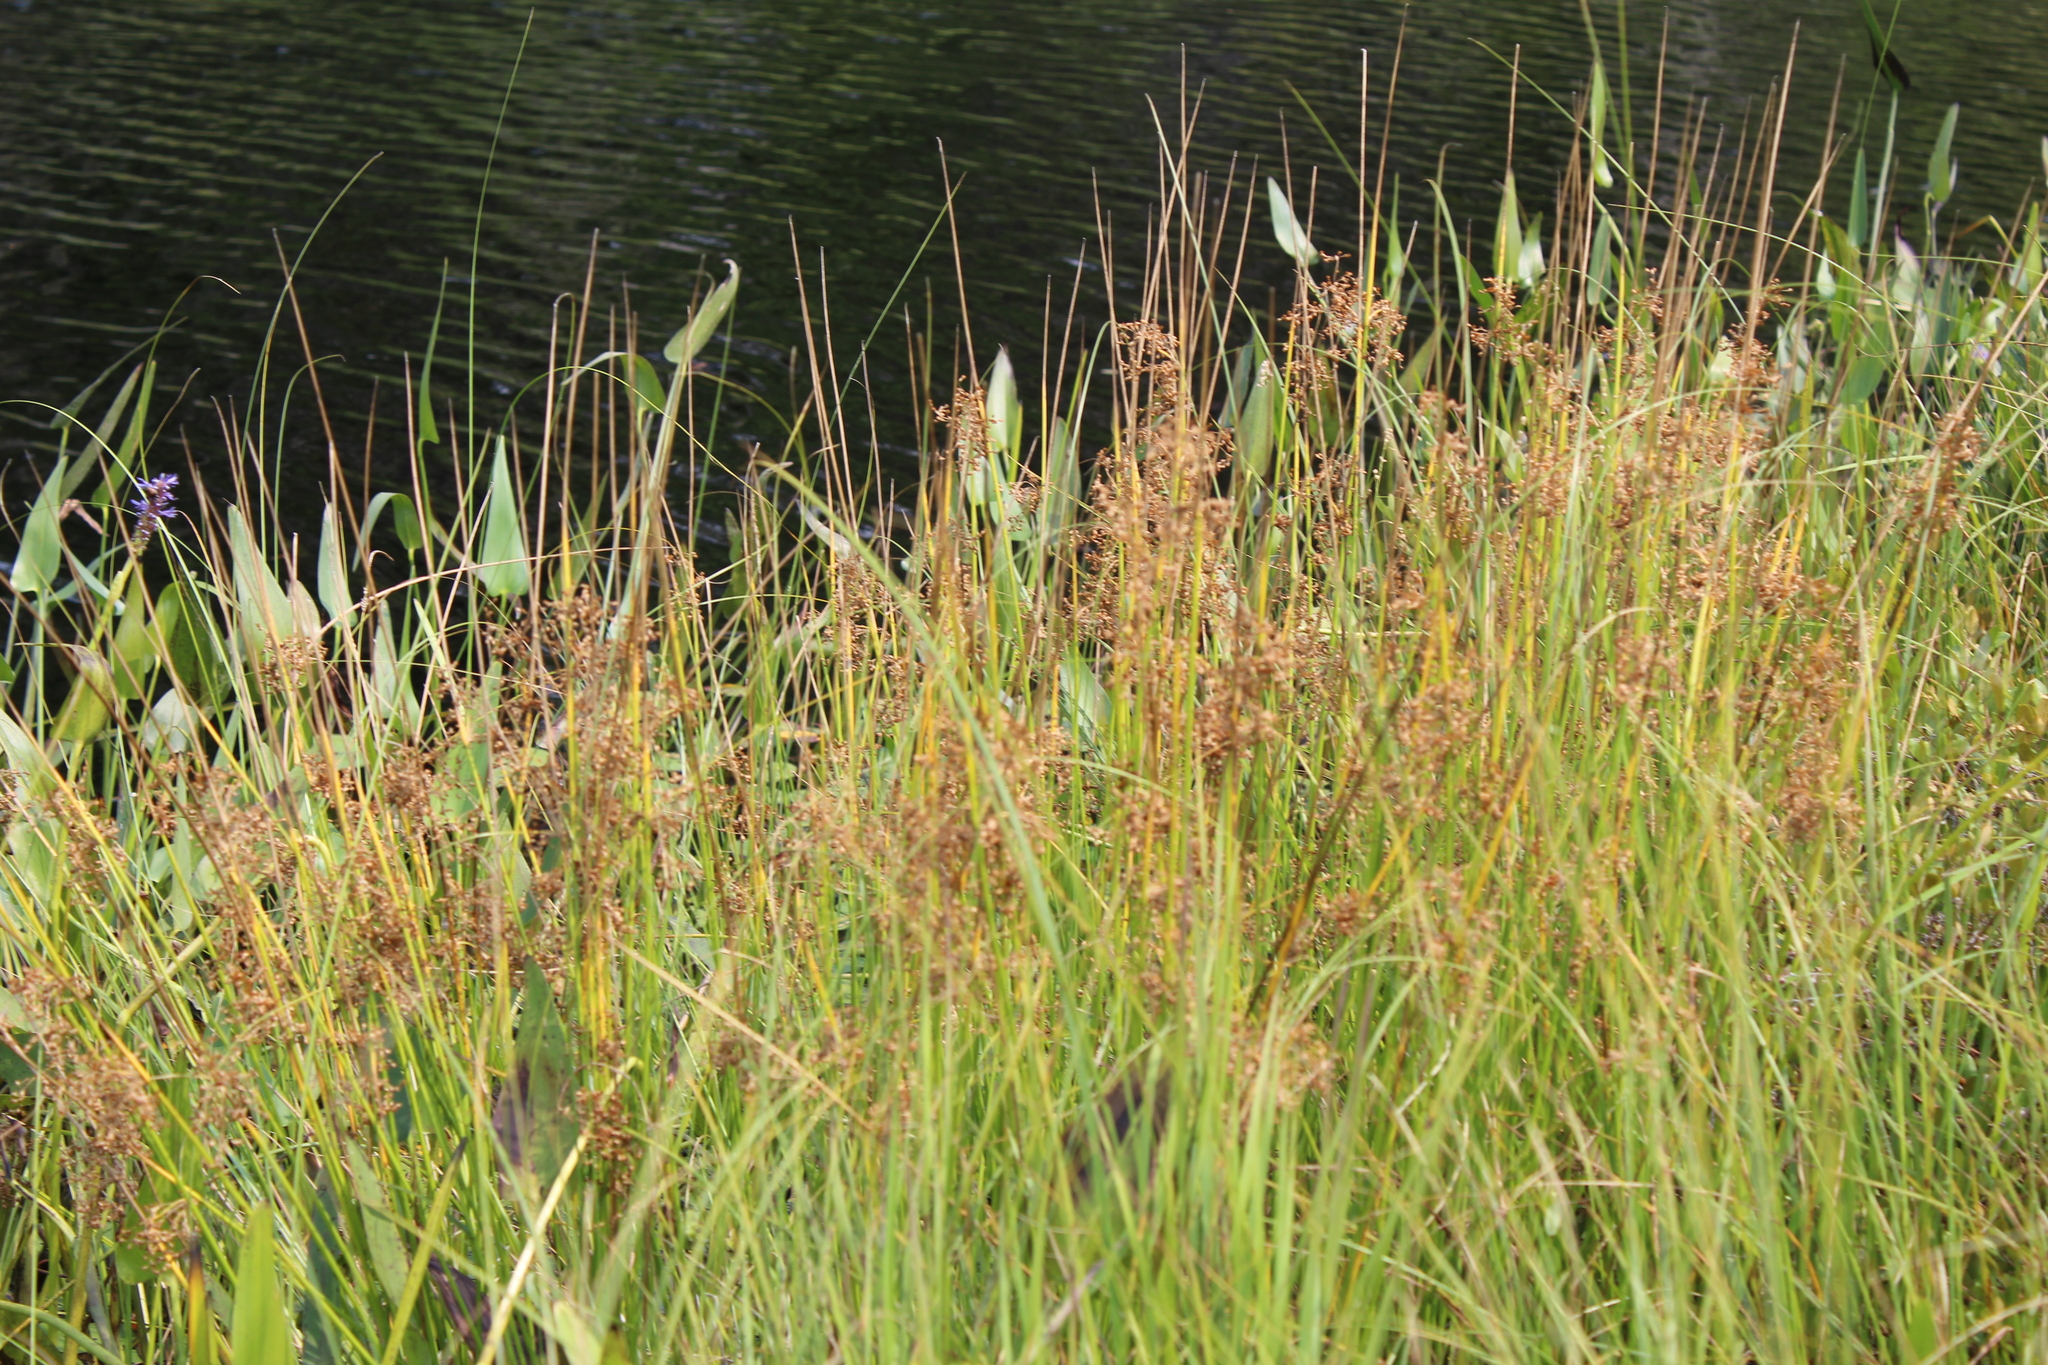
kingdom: Plantae
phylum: Tracheophyta
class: Liliopsida
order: Poales
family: Juncaceae
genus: Juncus
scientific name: Juncus effusus
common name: Soft rush
